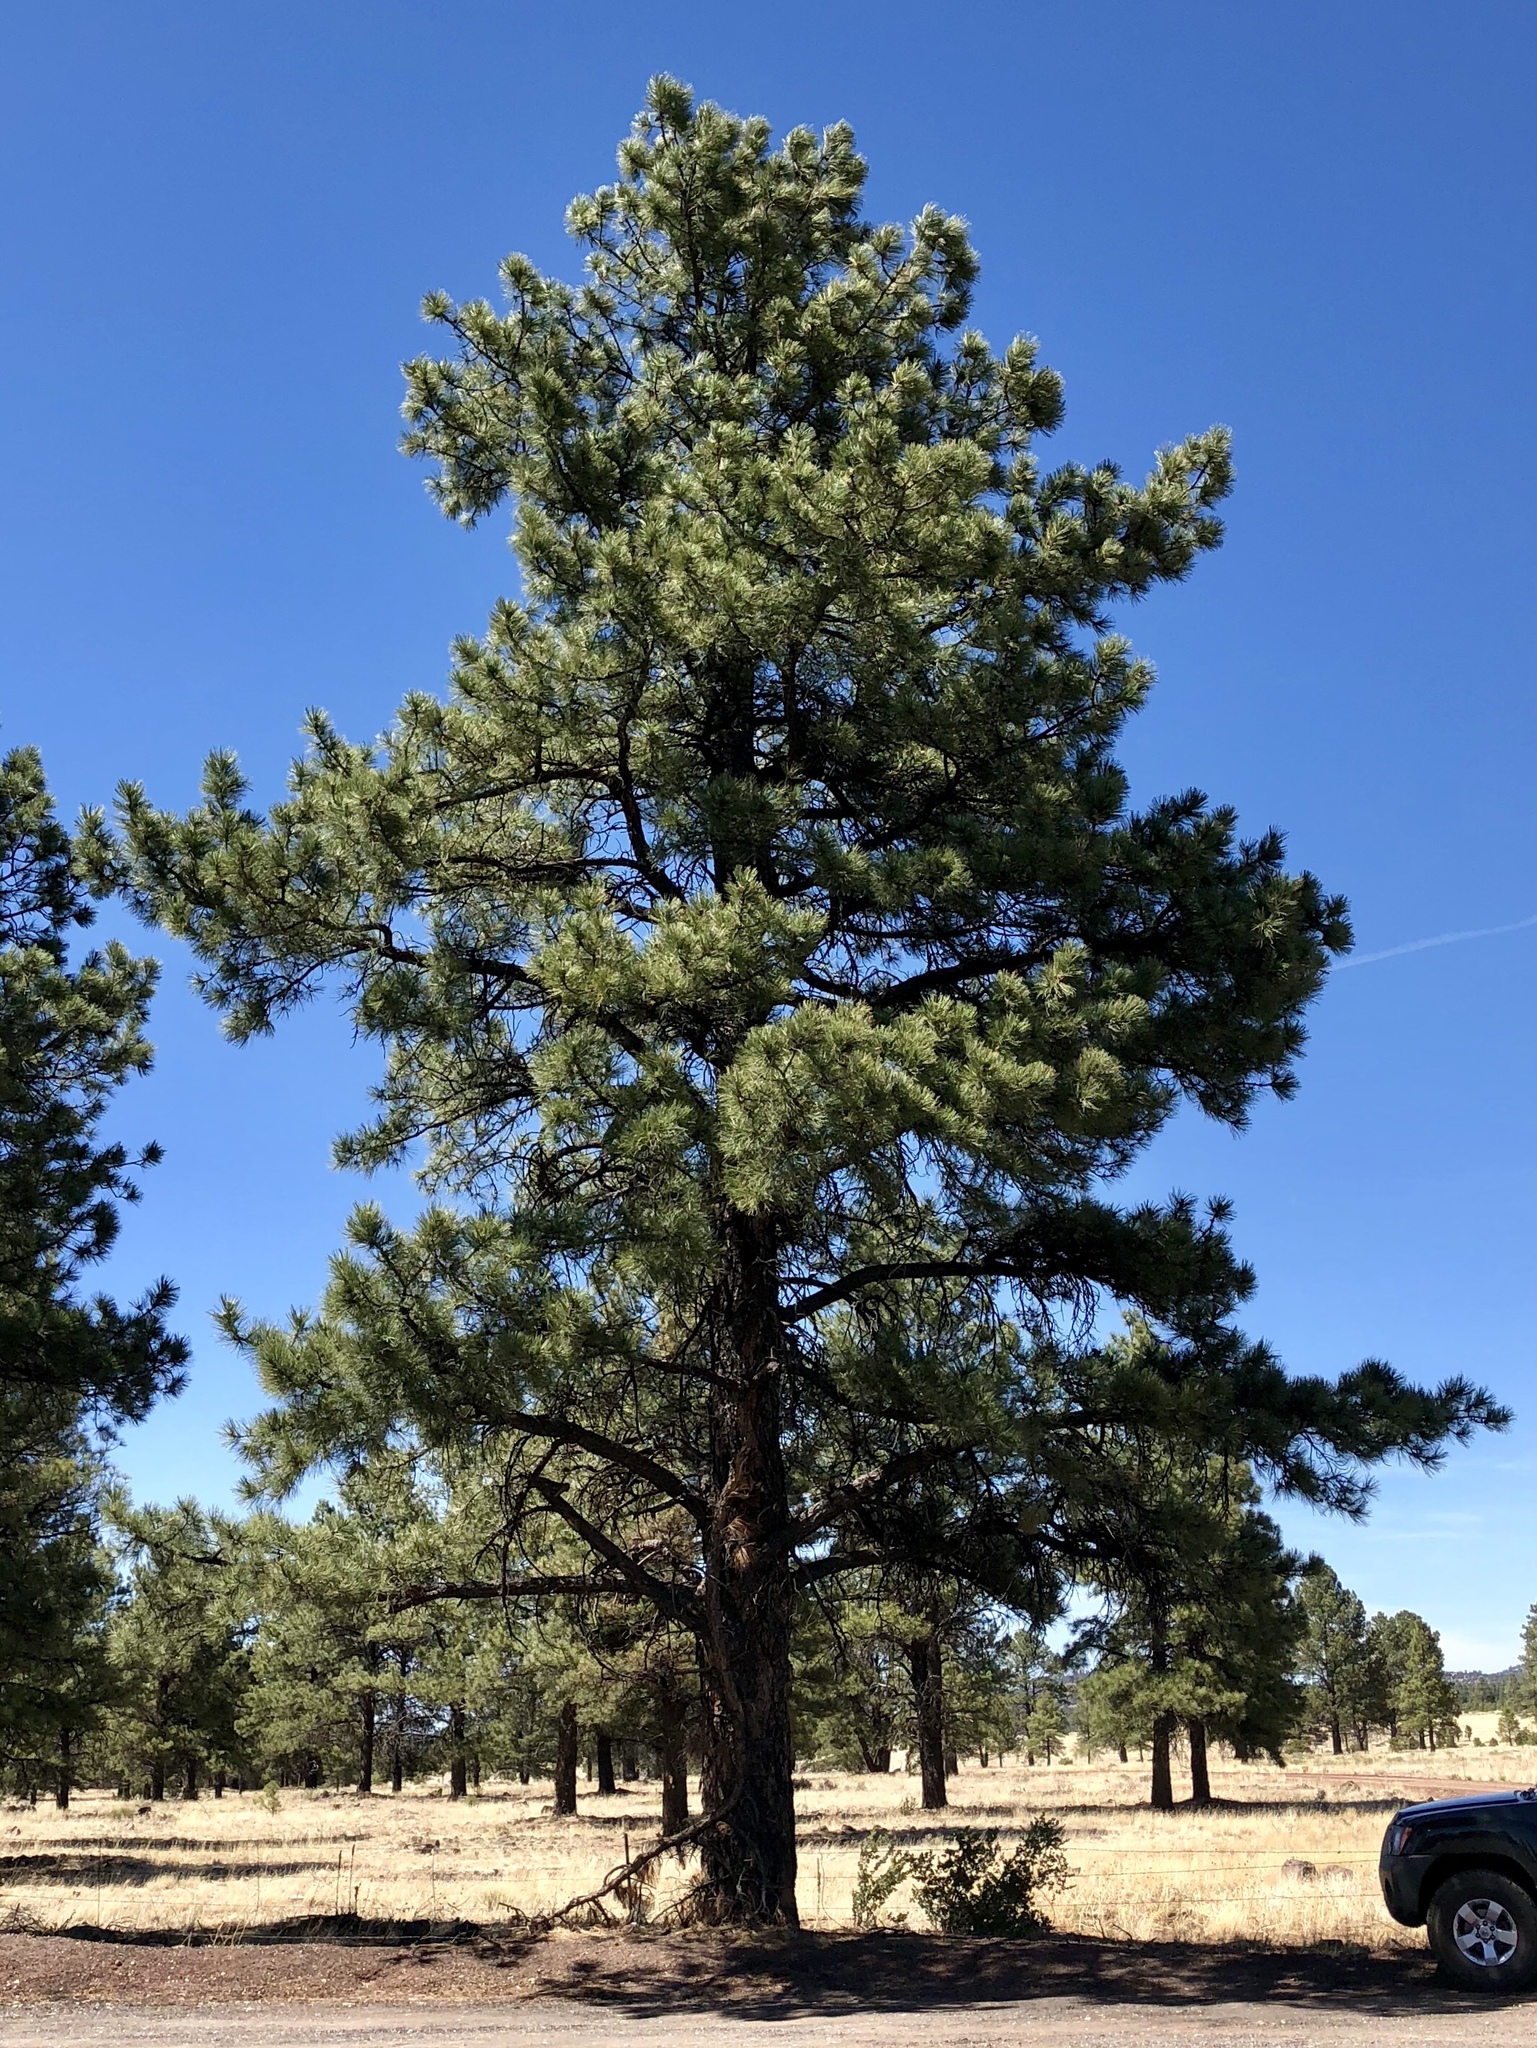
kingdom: Plantae
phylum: Tracheophyta
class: Pinopsida
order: Pinales
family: Pinaceae
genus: Pinus
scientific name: Pinus ponderosa
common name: Western yellow-pine
